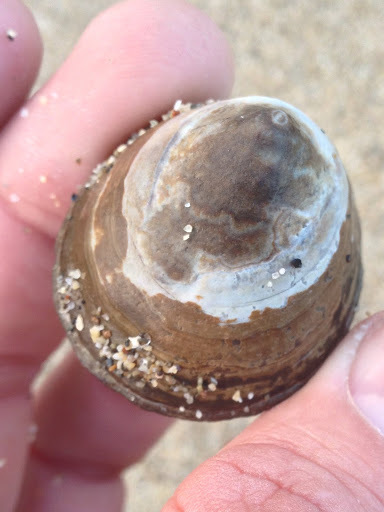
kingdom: Animalia
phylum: Mollusca
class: Gastropoda
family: Lottiidae
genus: Lottia
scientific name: Lottia gigantea
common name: Owl limpet
